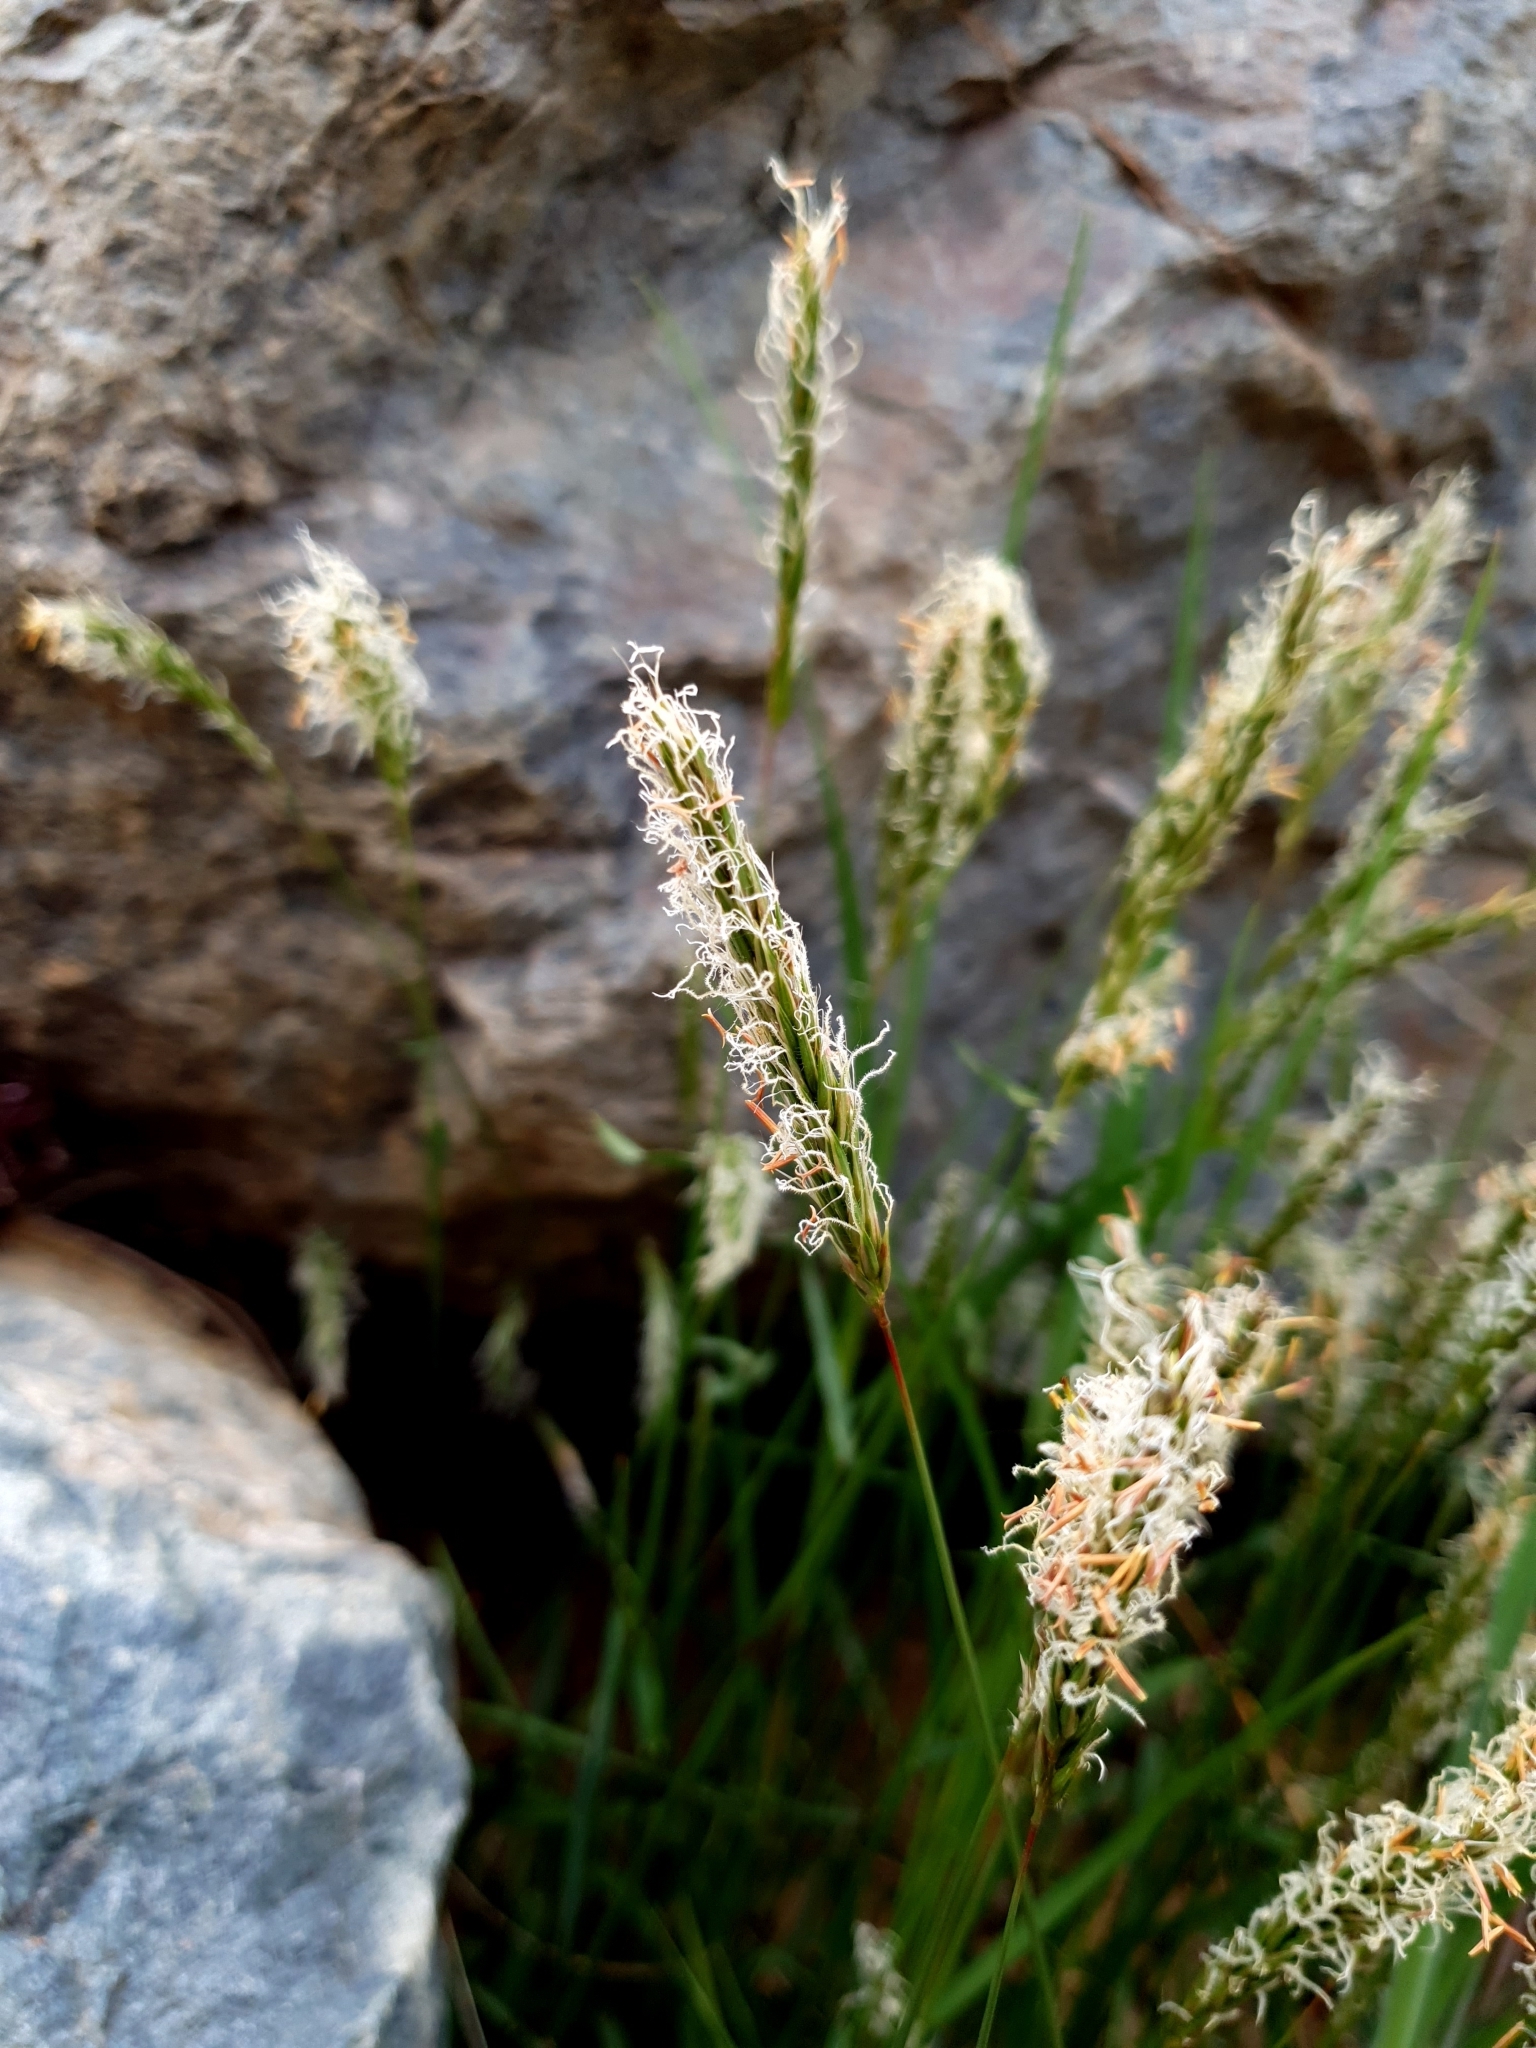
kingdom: Plantae
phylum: Tracheophyta
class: Liliopsida
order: Poales
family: Poaceae
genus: Anthoxanthum
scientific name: Anthoxanthum odoratum
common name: Sweet vernalgrass
